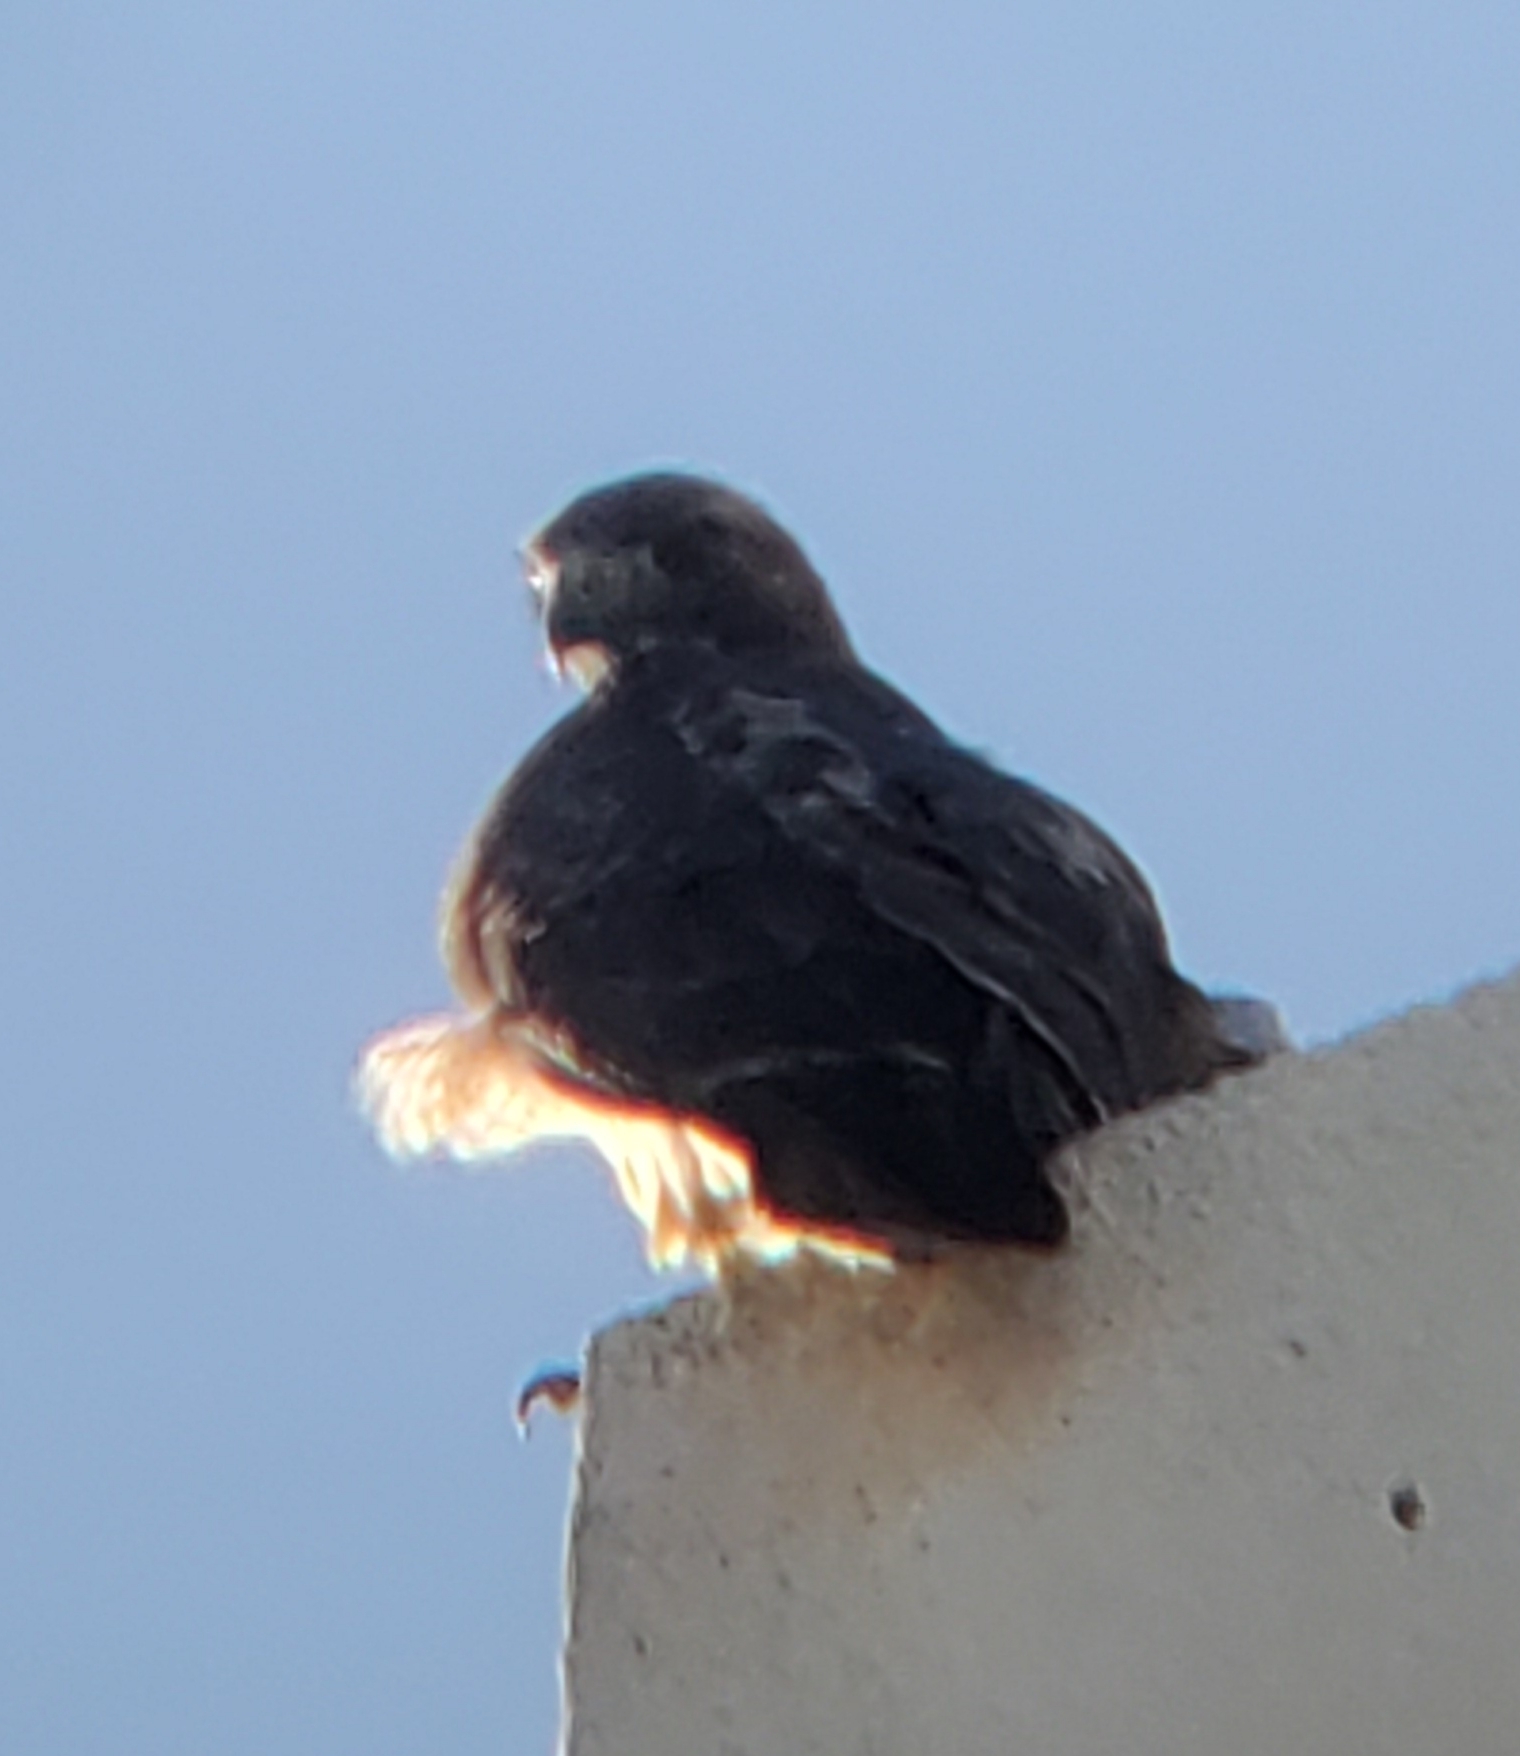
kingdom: Animalia
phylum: Chordata
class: Aves
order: Accipitriformes
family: Accipitridae
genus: Buteo
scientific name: Buteo jamaicensis
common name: Red-tailed hawk
